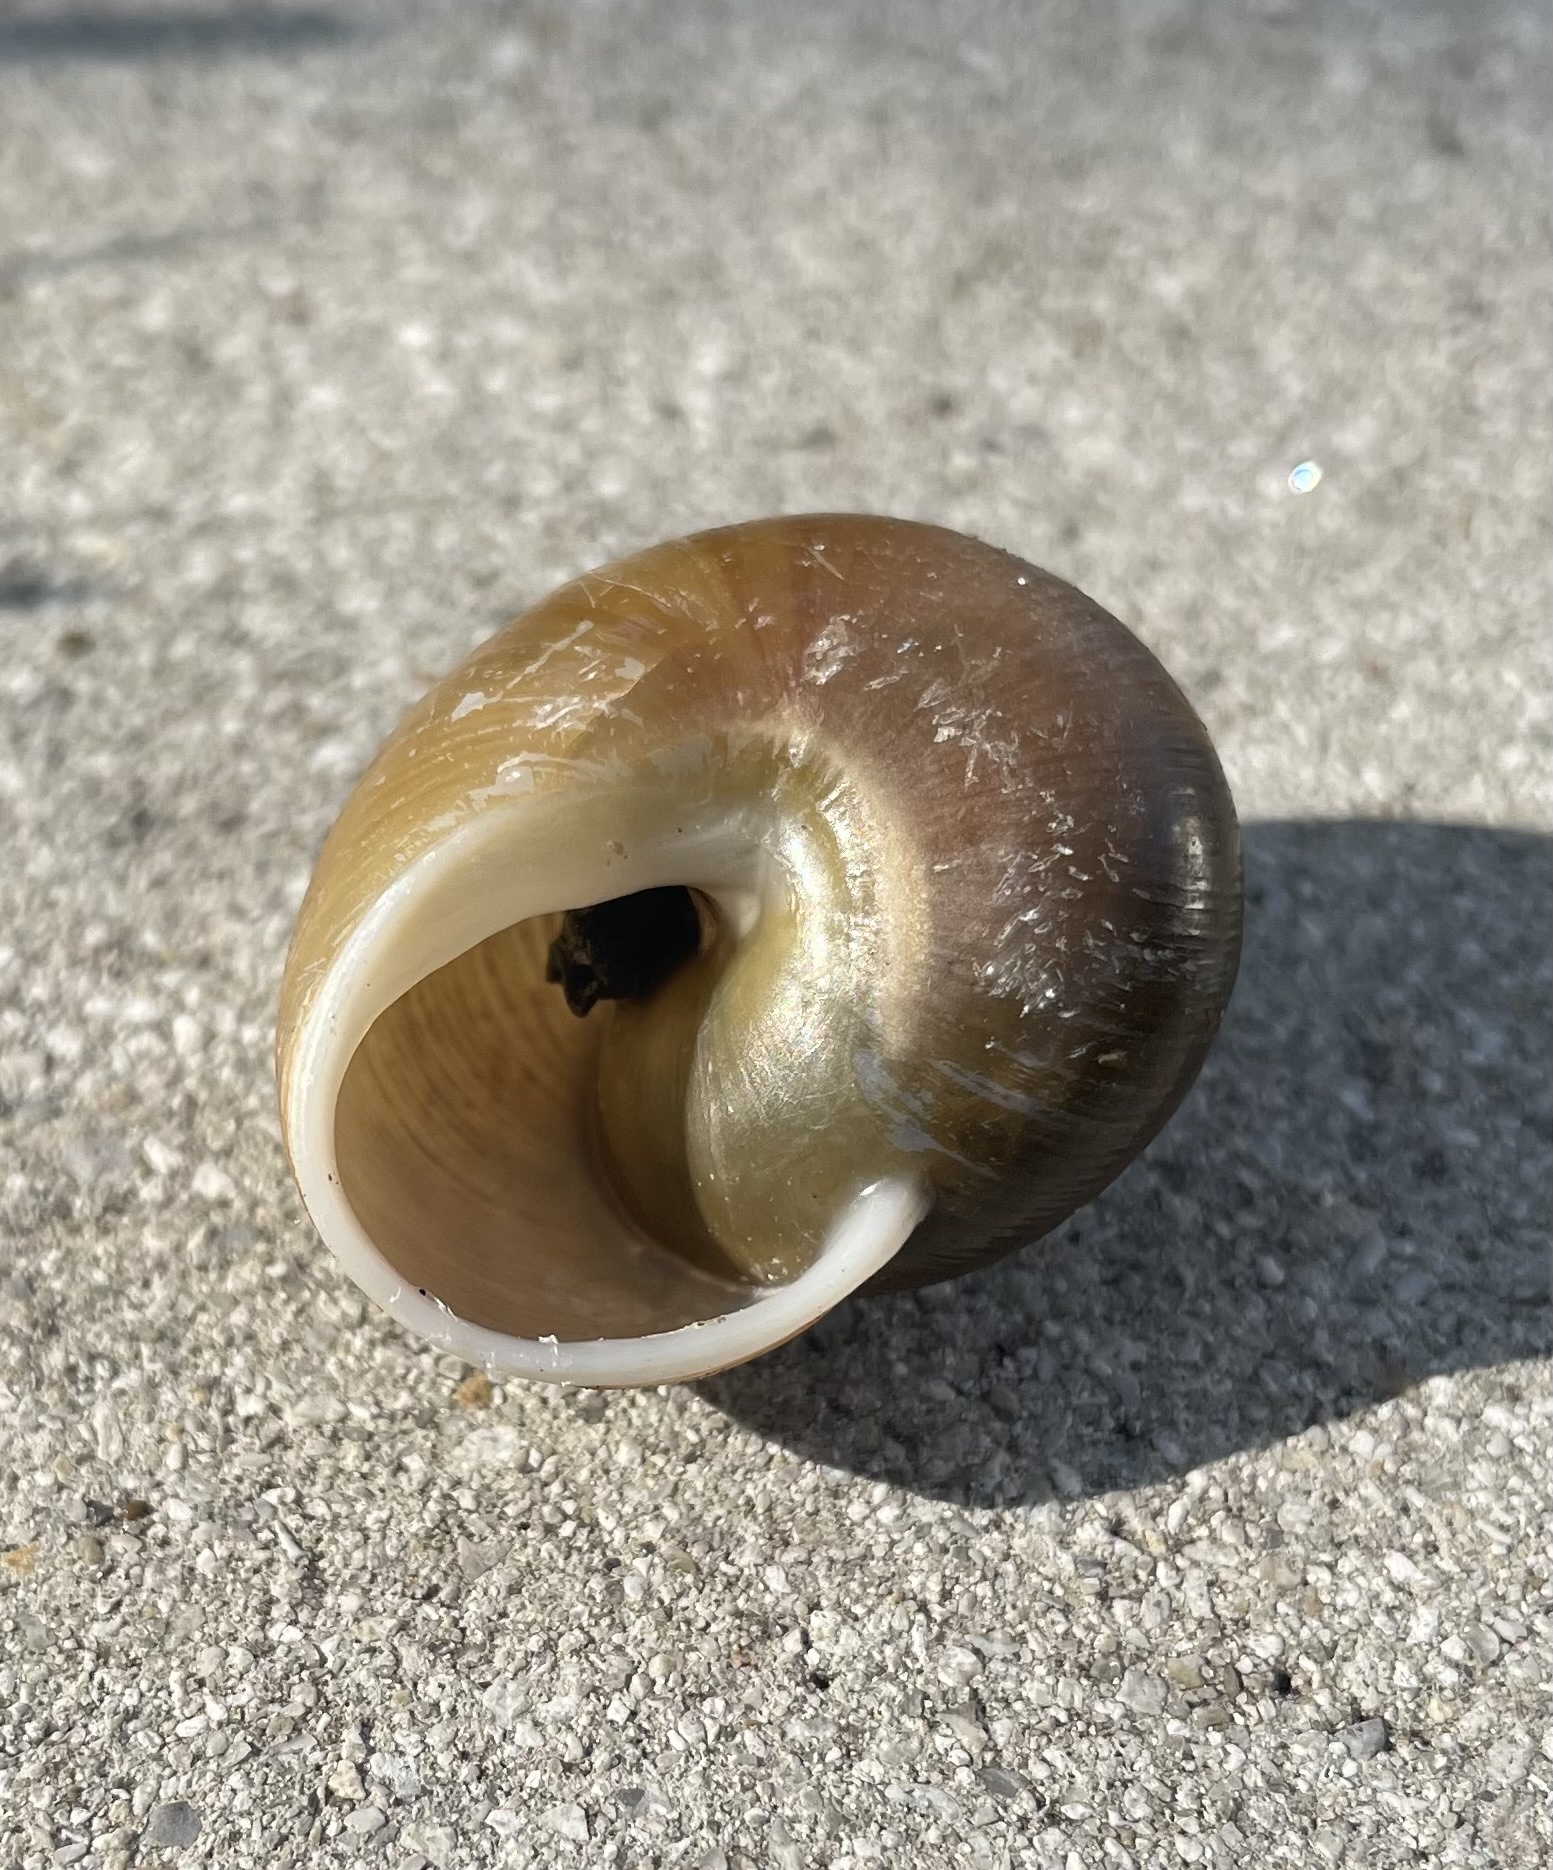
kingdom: Animalia
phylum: Mollusca
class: Gastropoda
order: Stylommatophora
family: Zachrysiidae
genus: Zachrysia
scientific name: Zachrysia provisoria
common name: Garden zachrysia
